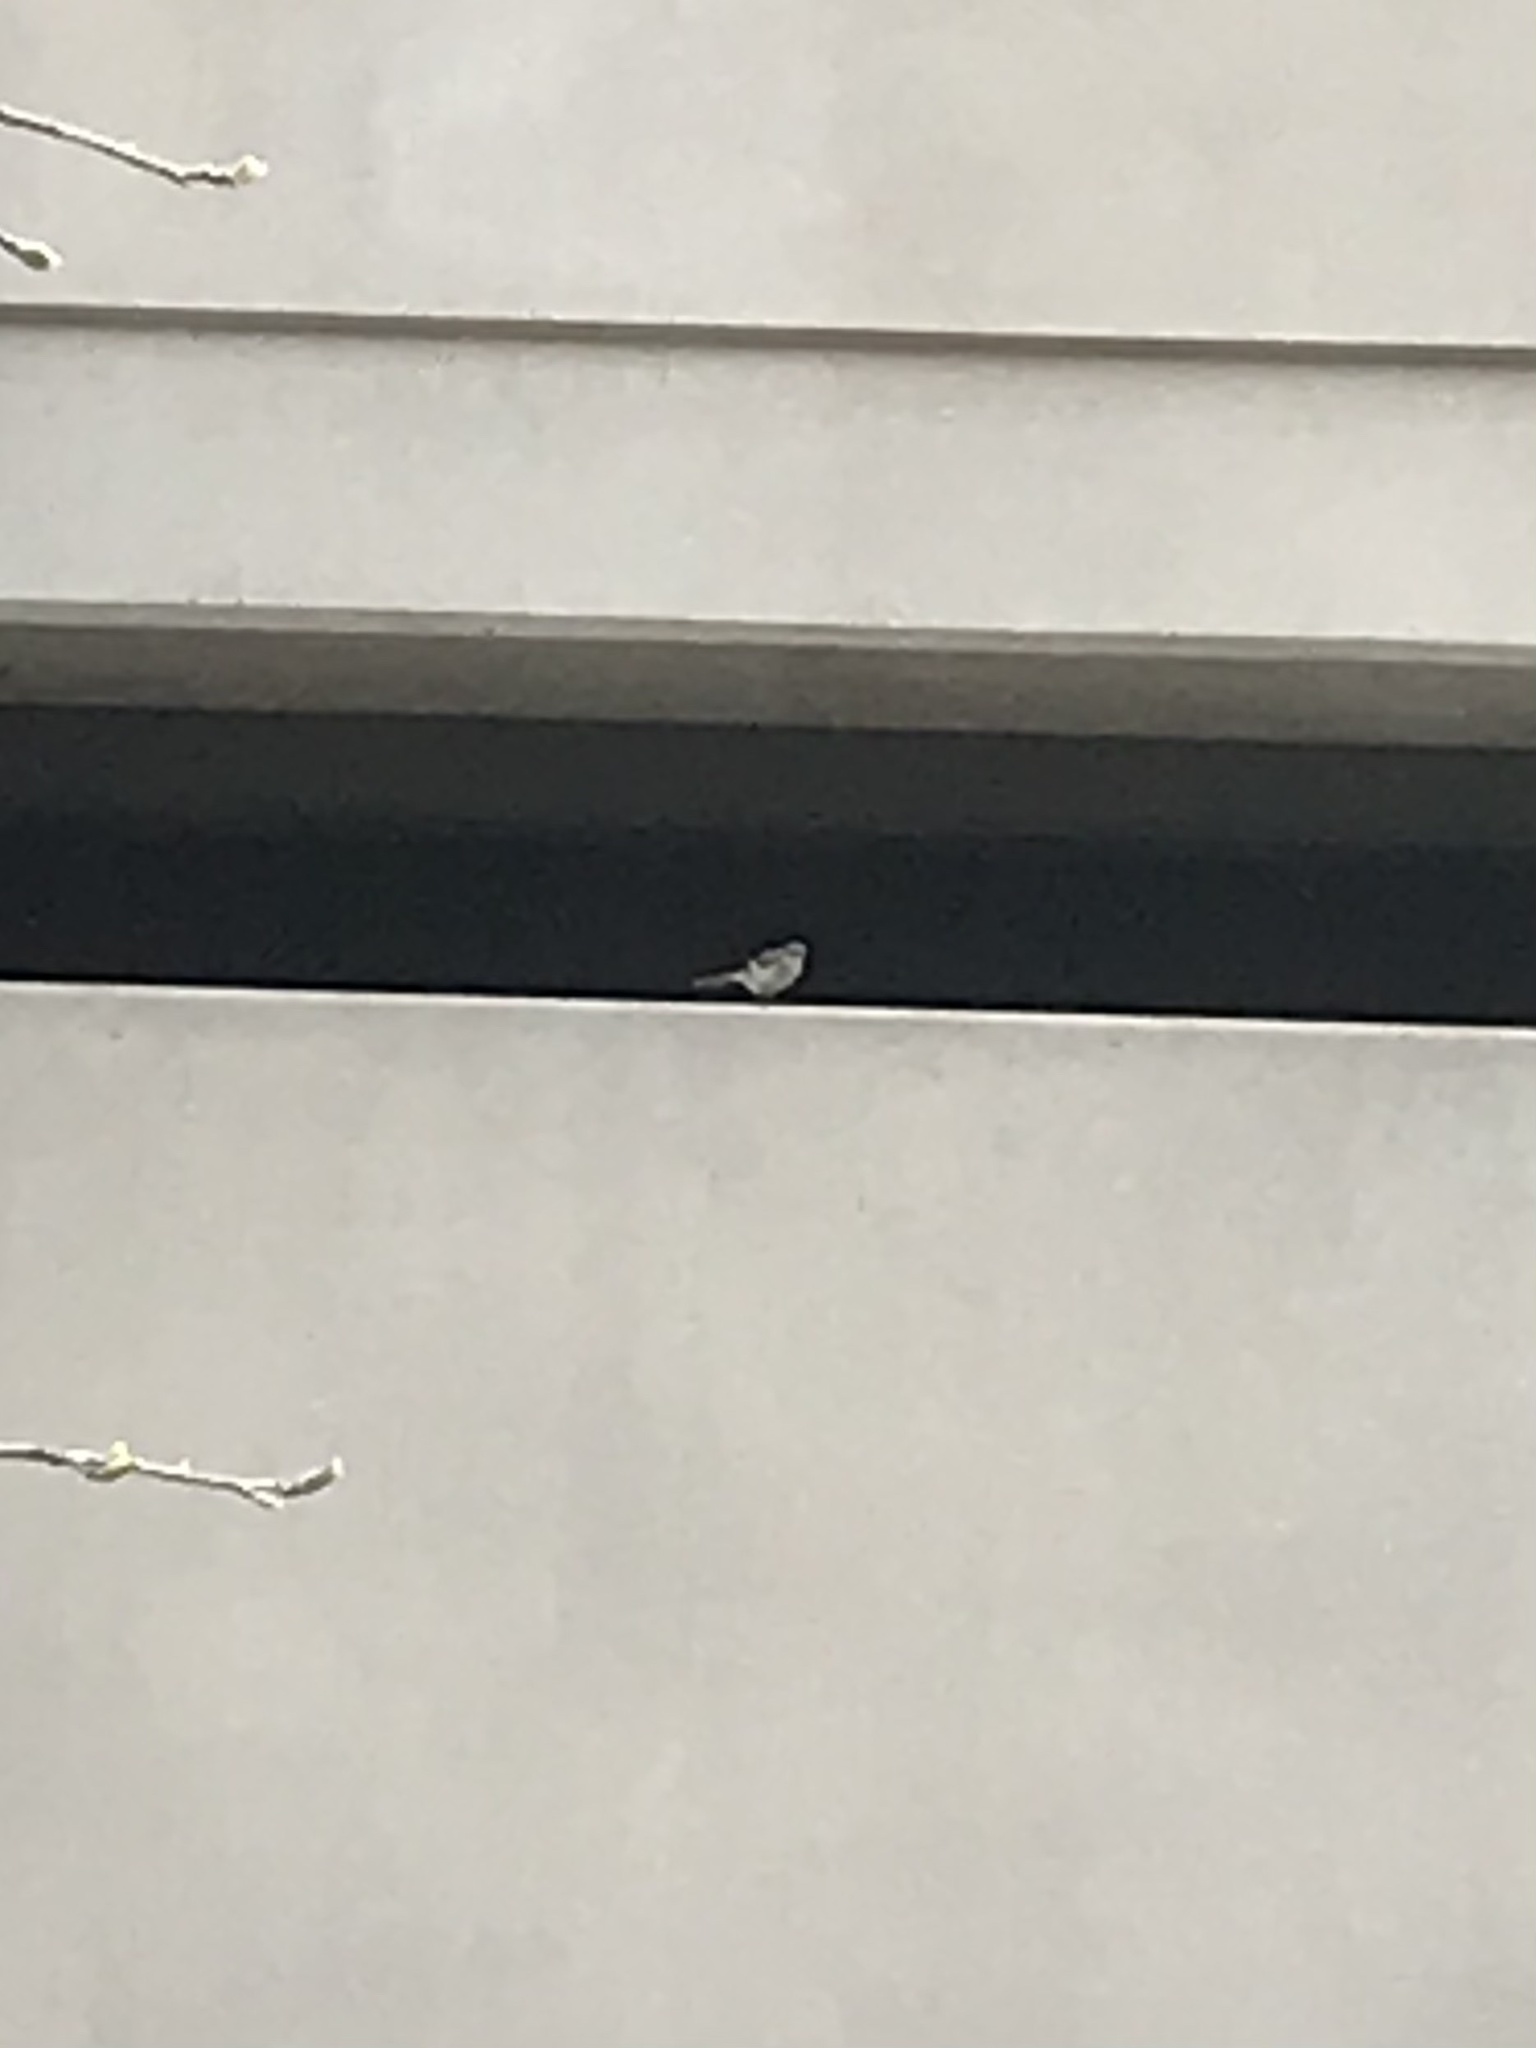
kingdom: Animalia
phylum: Chordata
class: Aves
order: Passeriformes
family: Mimidae
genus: Mimus
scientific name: Mimus polyglottos
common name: Northern mockingbird
